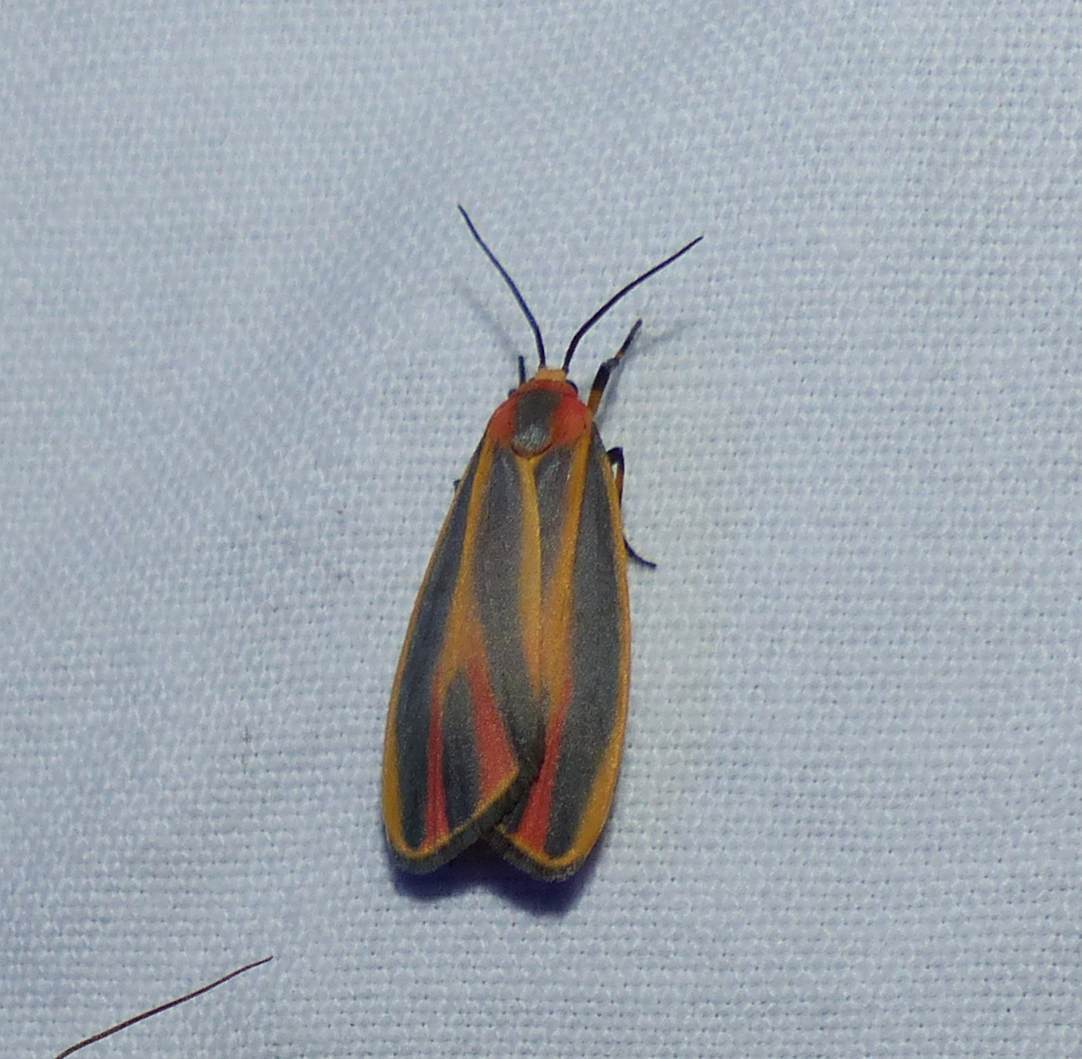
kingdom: Animalia
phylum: Arthropoda
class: Insecta
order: Lepidoptera
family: Erebidae
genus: Hypoprepia
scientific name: Hypoprepia fucosa
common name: Painted lichen moth
